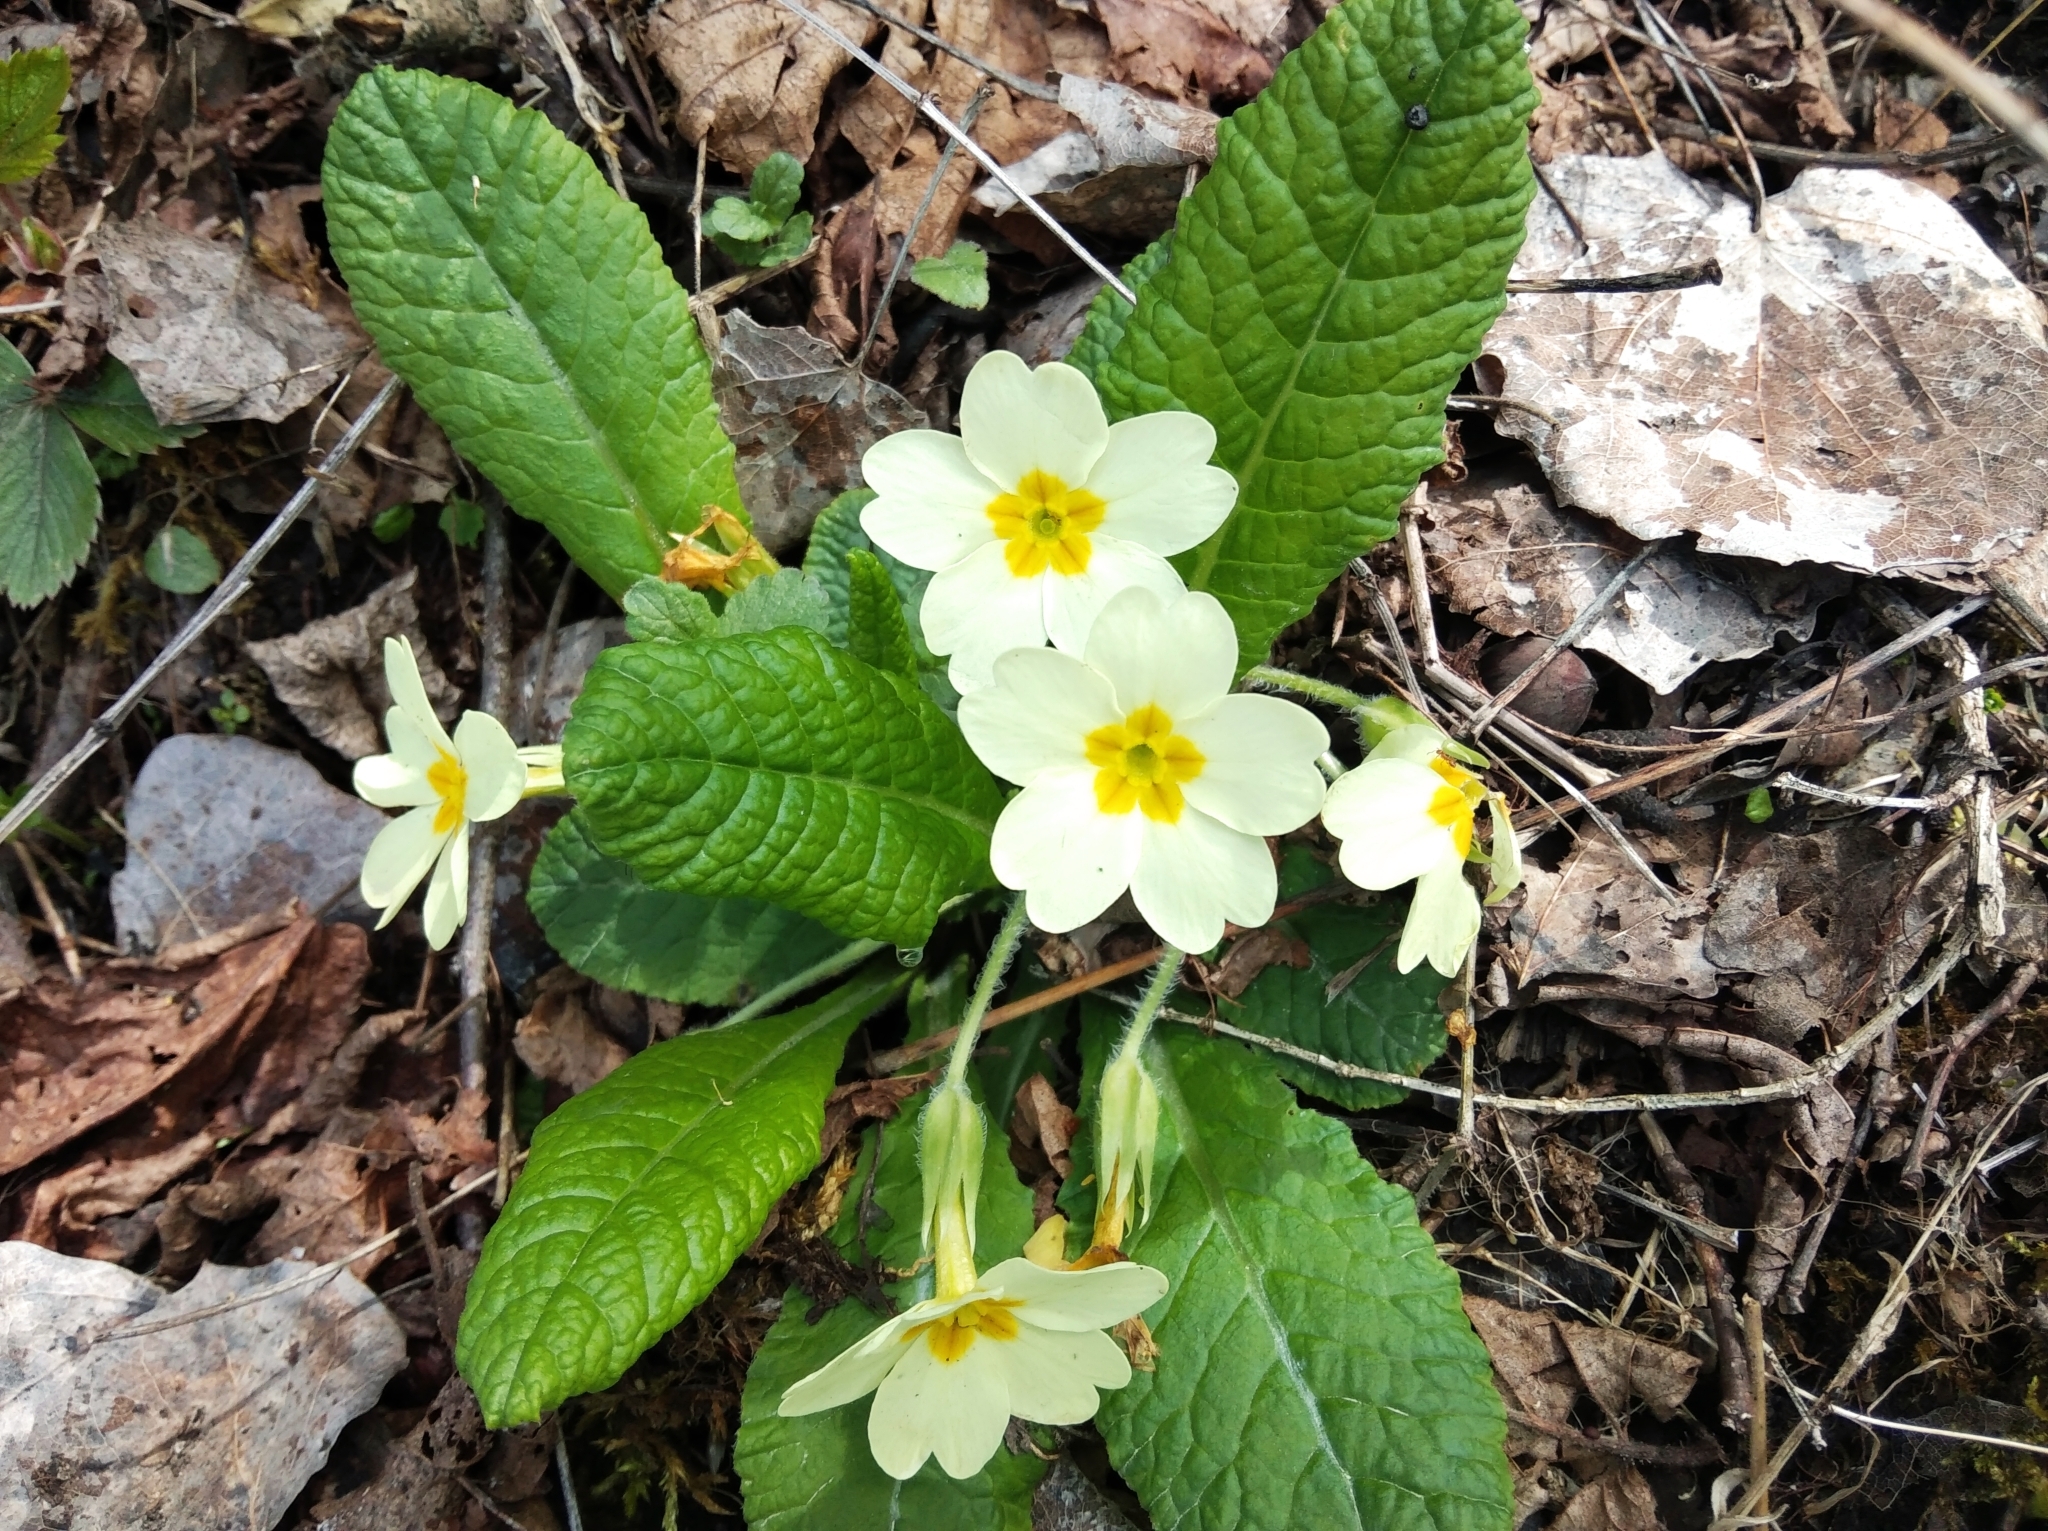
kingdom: Plantae
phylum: Tracheophyta
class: Magnoliopsida
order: Ericales
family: Primulaceae
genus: Primula
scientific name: Primula vulgaris
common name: Primrose
